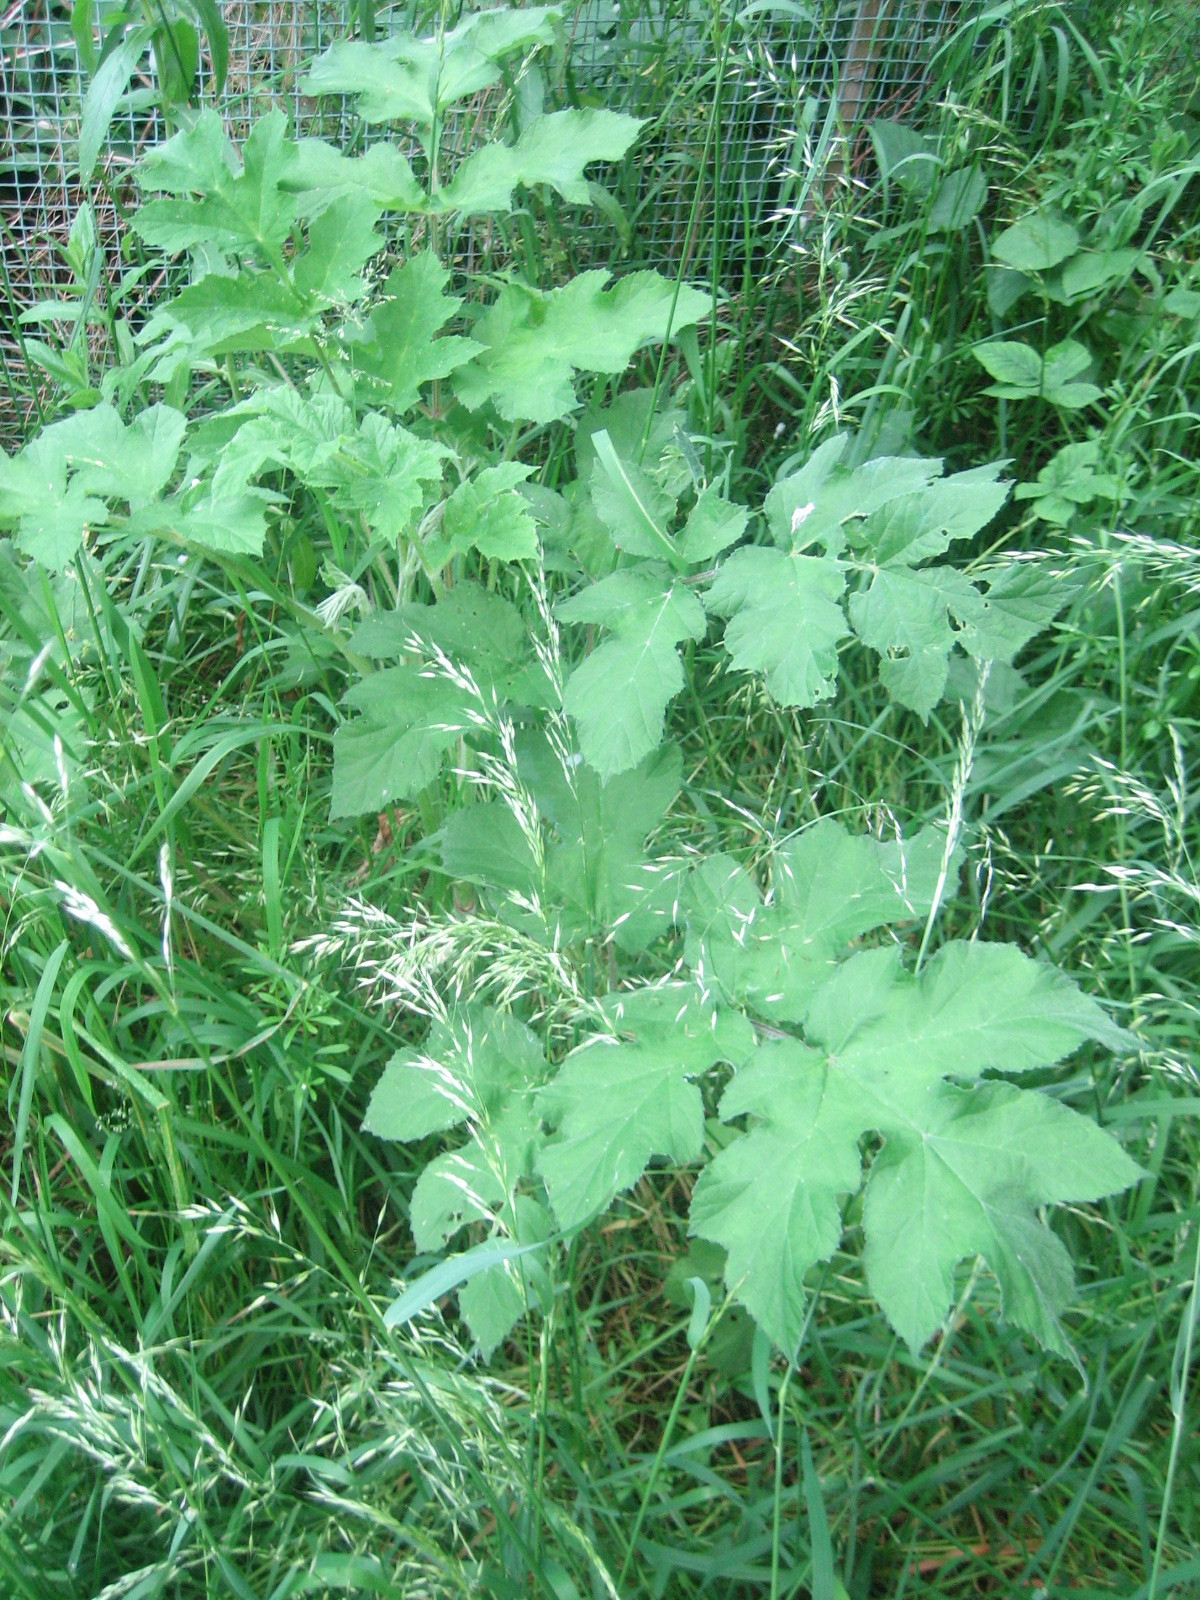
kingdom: Plantae
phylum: Tracheophyta
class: Magnoliopsida
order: Apiales
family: Apiaceae
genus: Heracleum
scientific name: Heracleum sphondylium
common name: Hogweed
